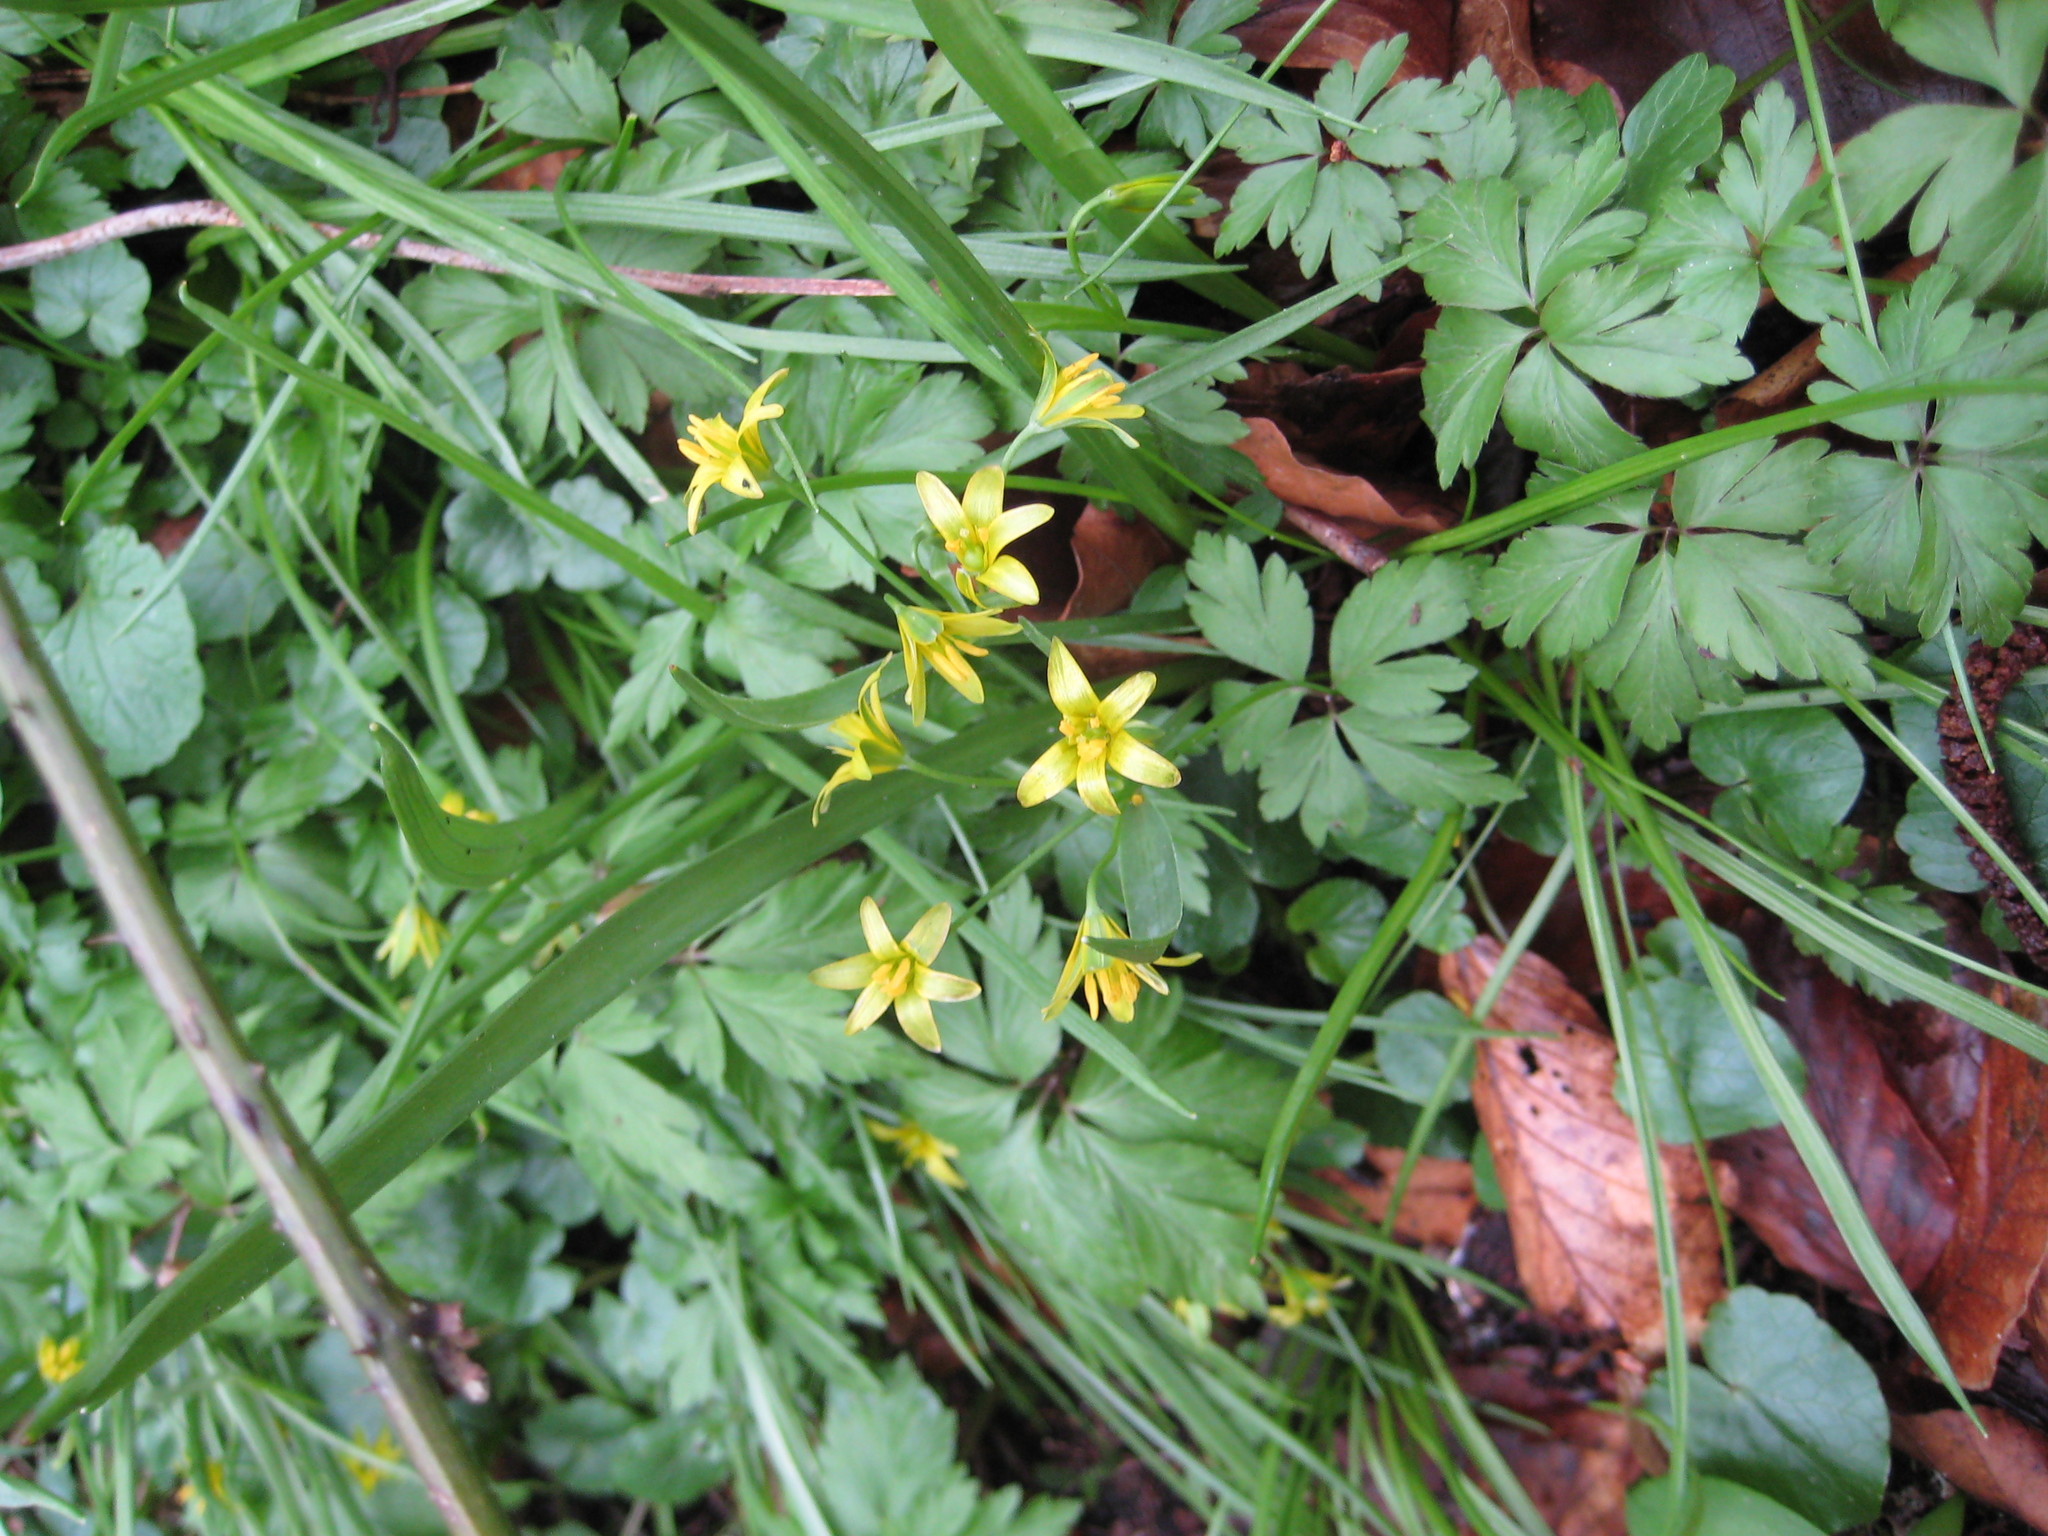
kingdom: Plantae
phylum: Tracheophyta
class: Liliopsida
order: Liliales
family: Liliaceae
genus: Gagea
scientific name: Gagea lutea
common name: Yellow star-of-bethlehem
